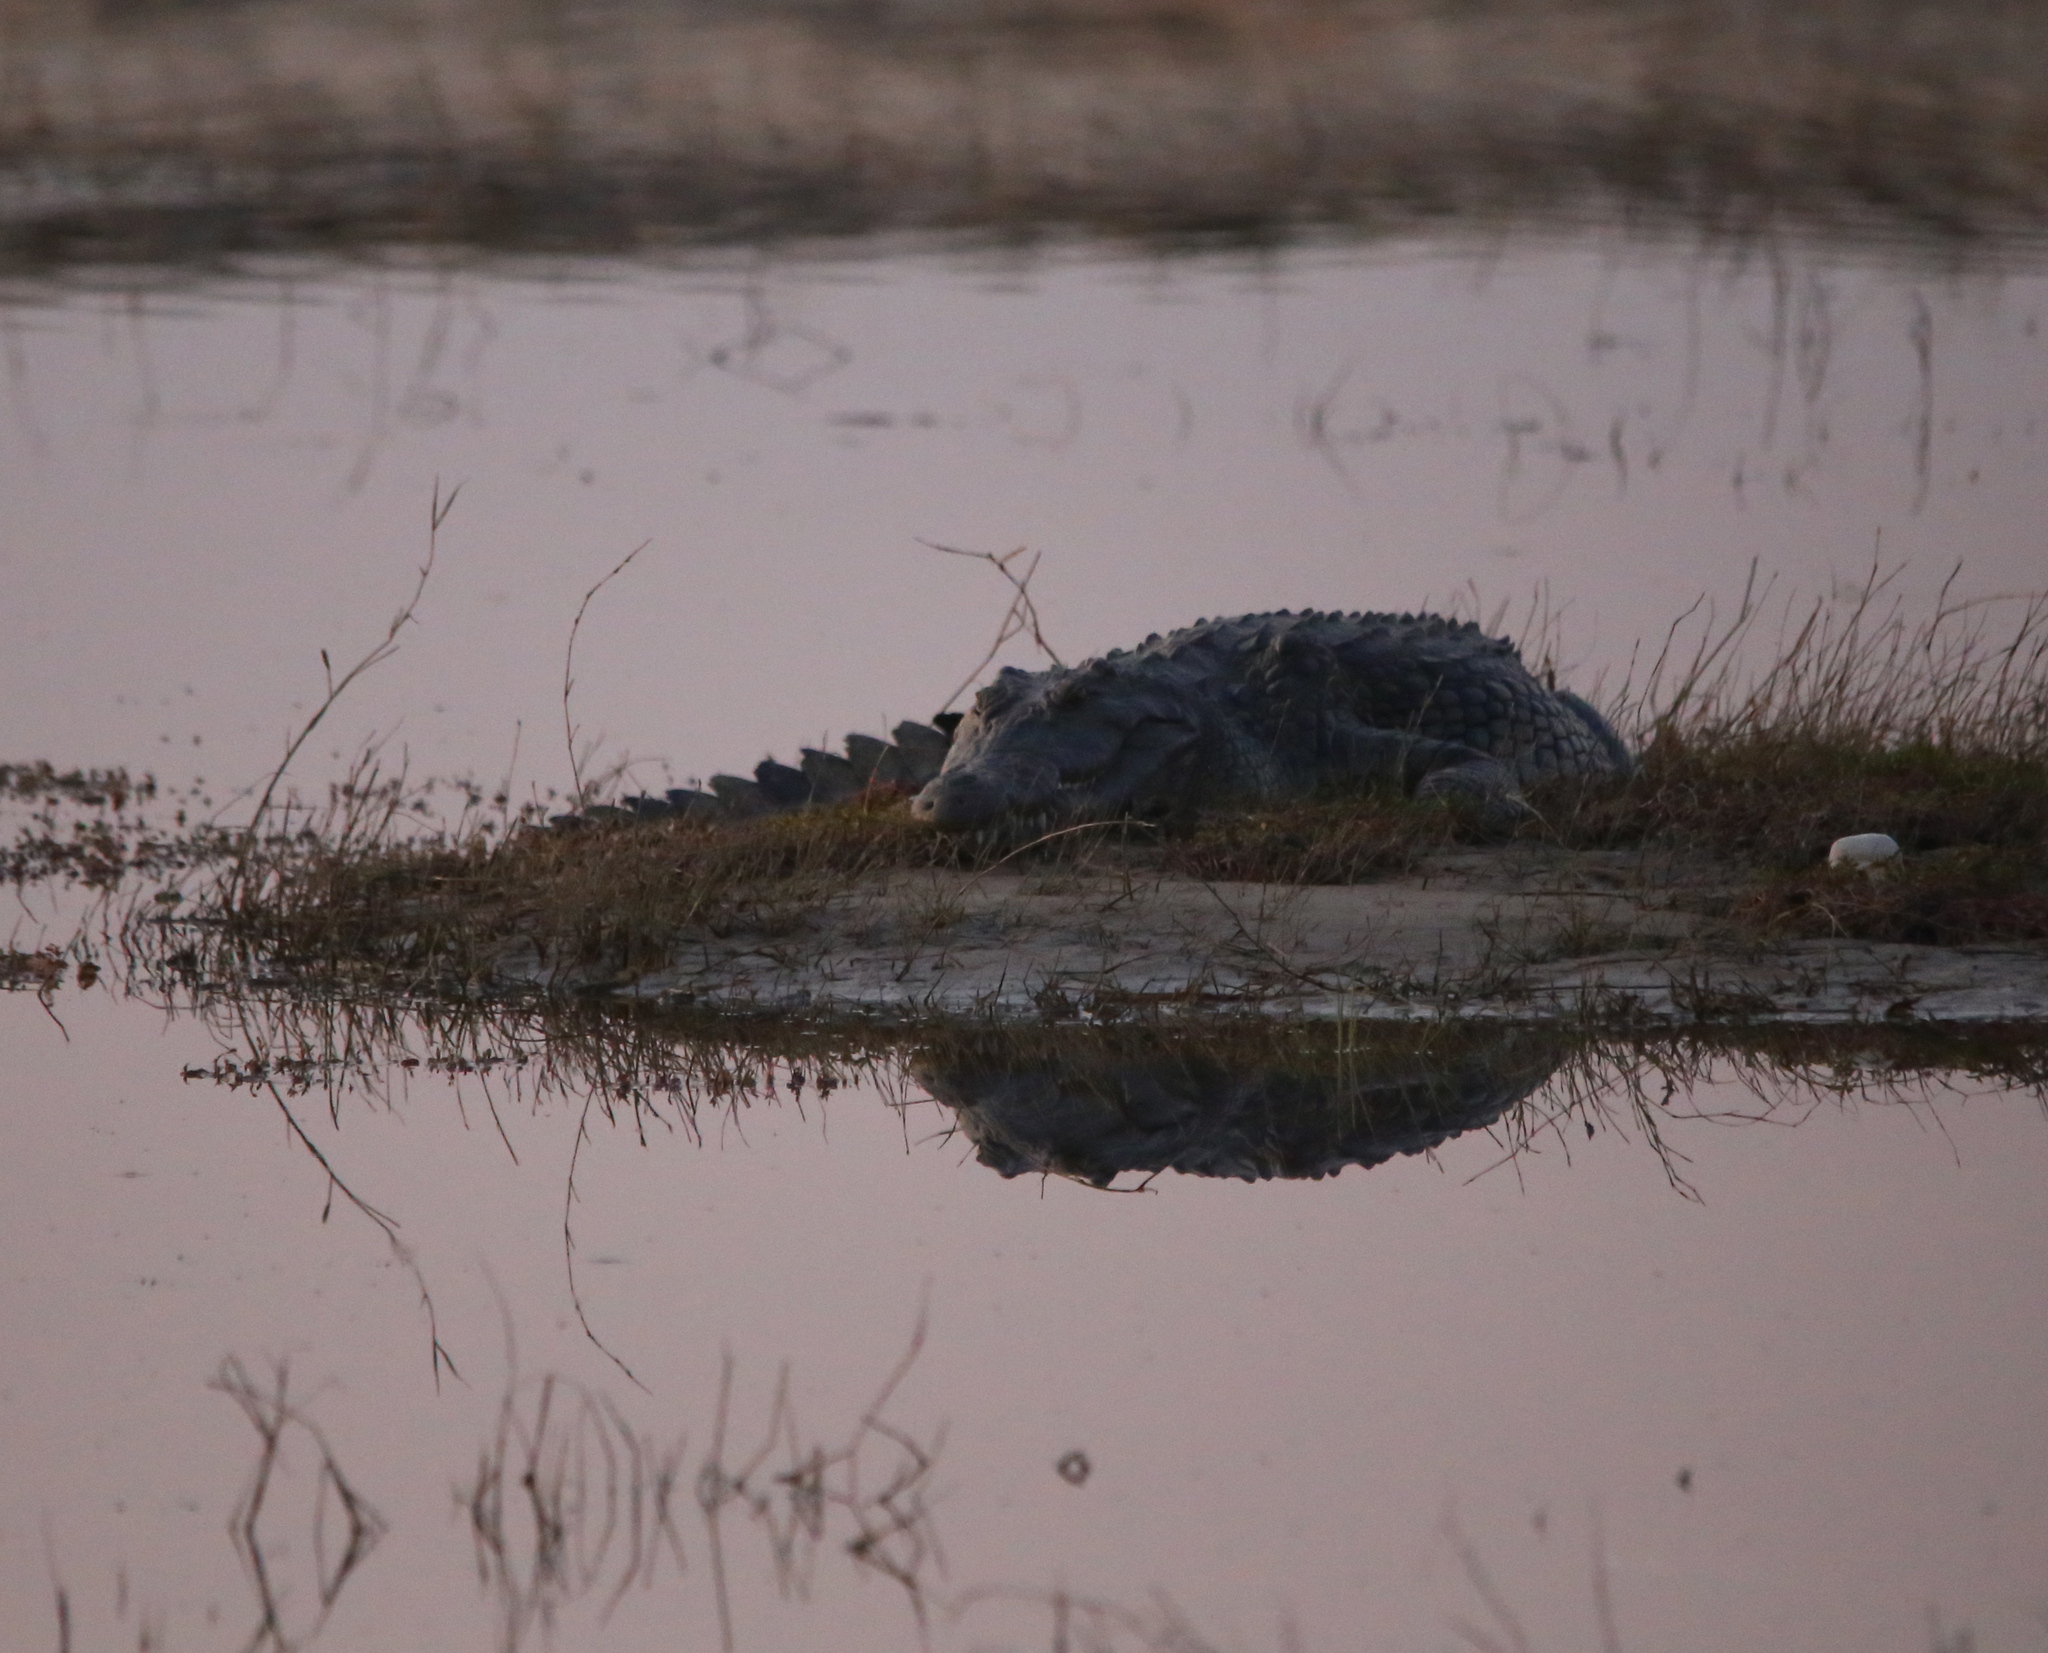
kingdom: Animalia
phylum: Chordata
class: Crocodylia
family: Crocodylidae
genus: Crocodylus
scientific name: Crocodylus niloticus
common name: Nile crocodile
